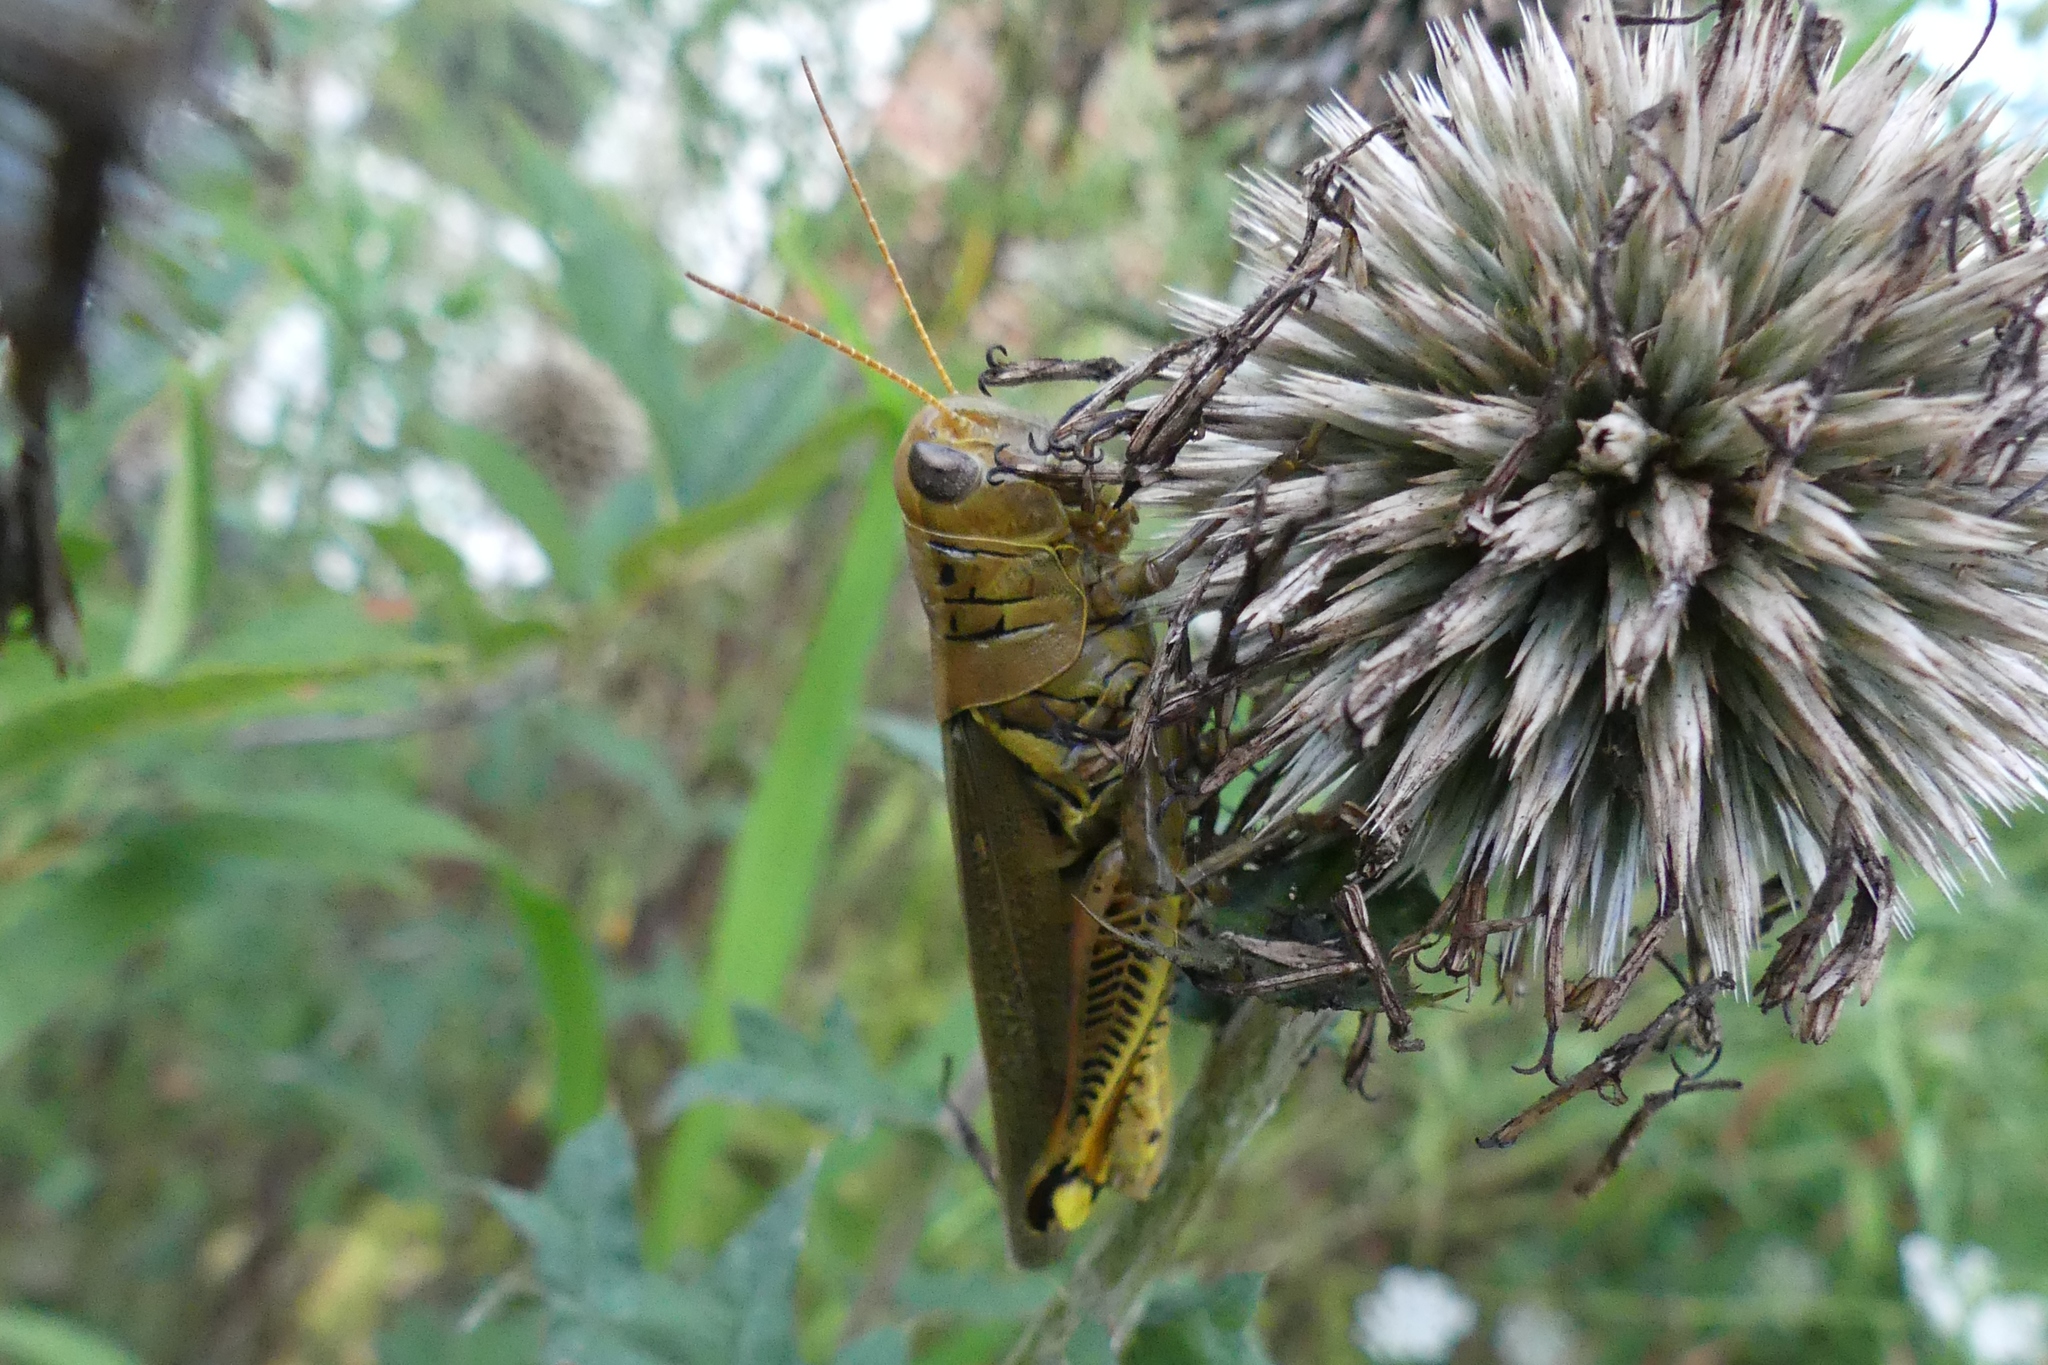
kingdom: Animalia
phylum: Arthropoda
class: Insecta
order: Orthoptera
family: Acrididae
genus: Melanoplus
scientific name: Melanoplus differentialis
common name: Differential grasshopper
